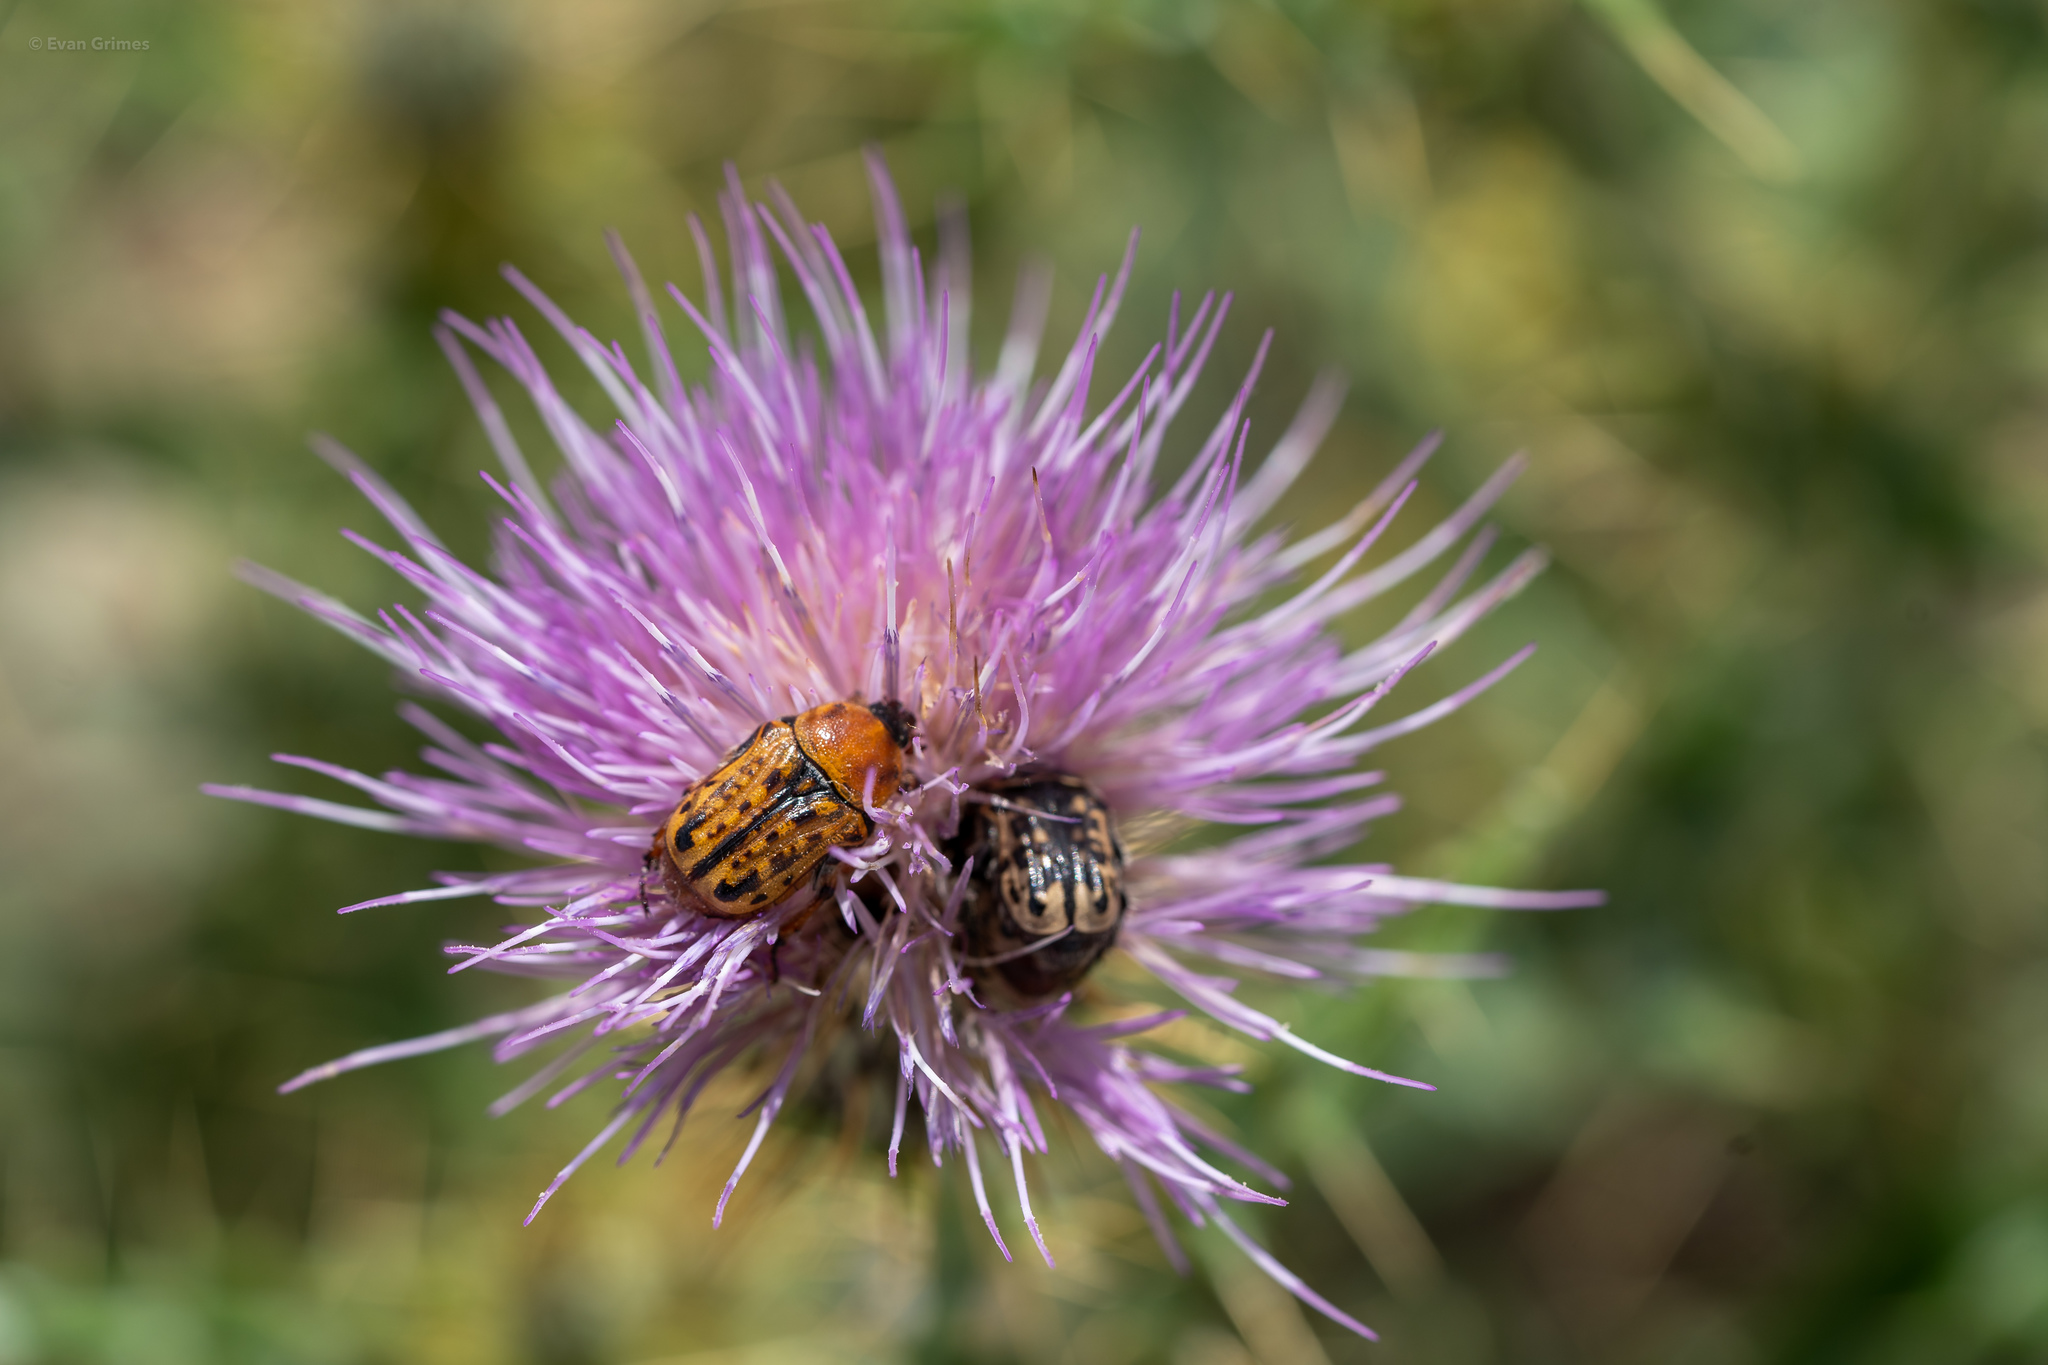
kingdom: Animalia
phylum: Arthropoda
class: Insecta
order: Coleoptera
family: Scarabaeidae
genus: Euphoria
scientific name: Euphoria kernii
